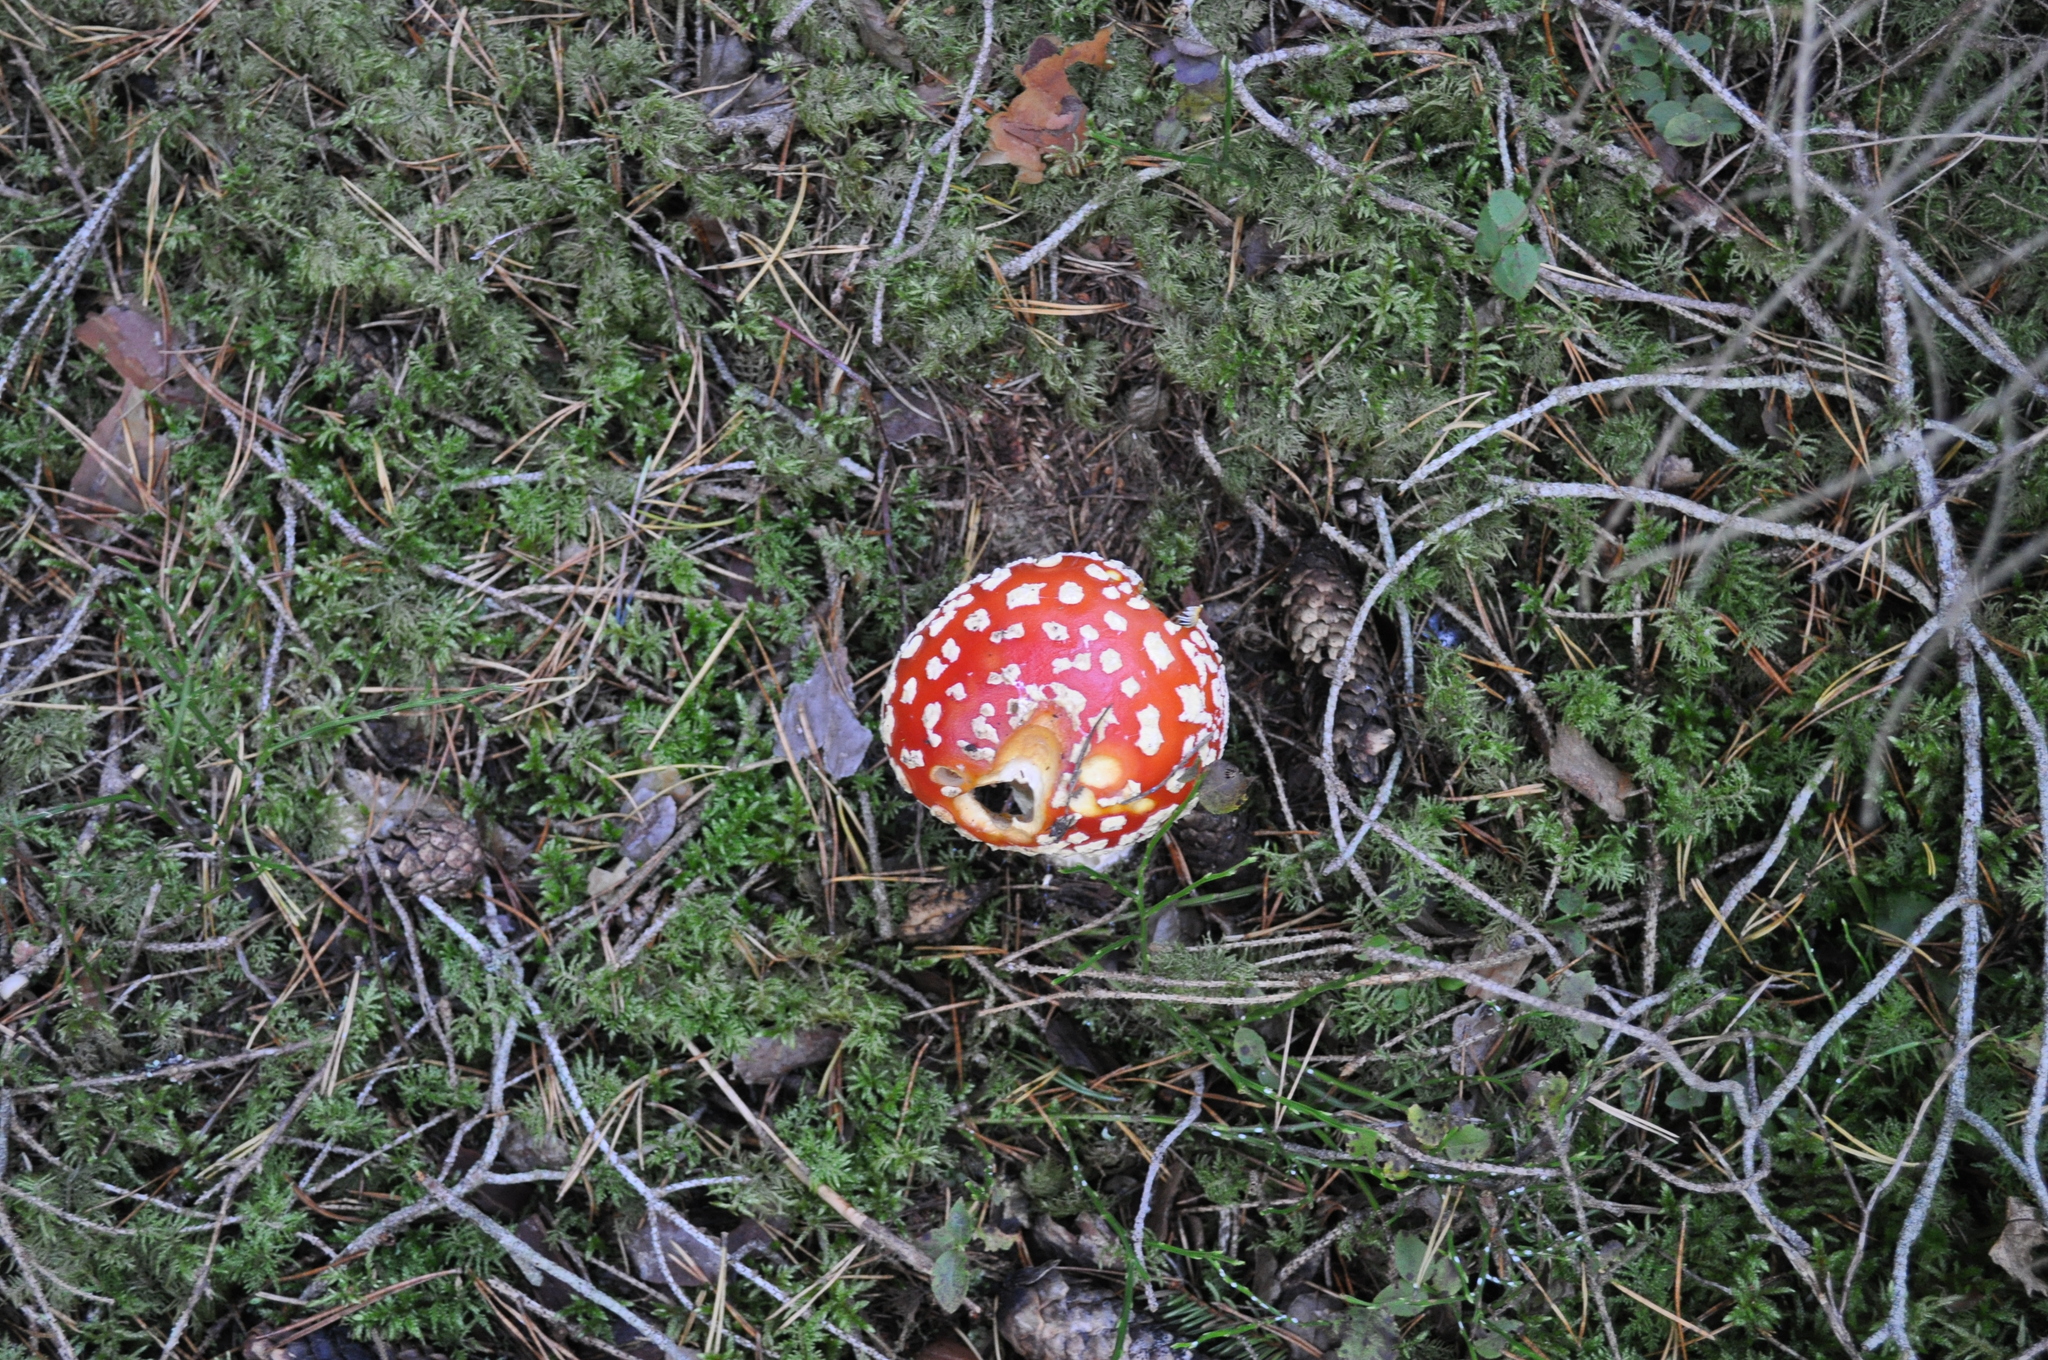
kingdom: Fungi
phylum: Basidiomycota
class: Agaricomycetes
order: Agaricales
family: Amanitaceae
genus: Amanita
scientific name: Amanita muscaria
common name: Fly agaric
